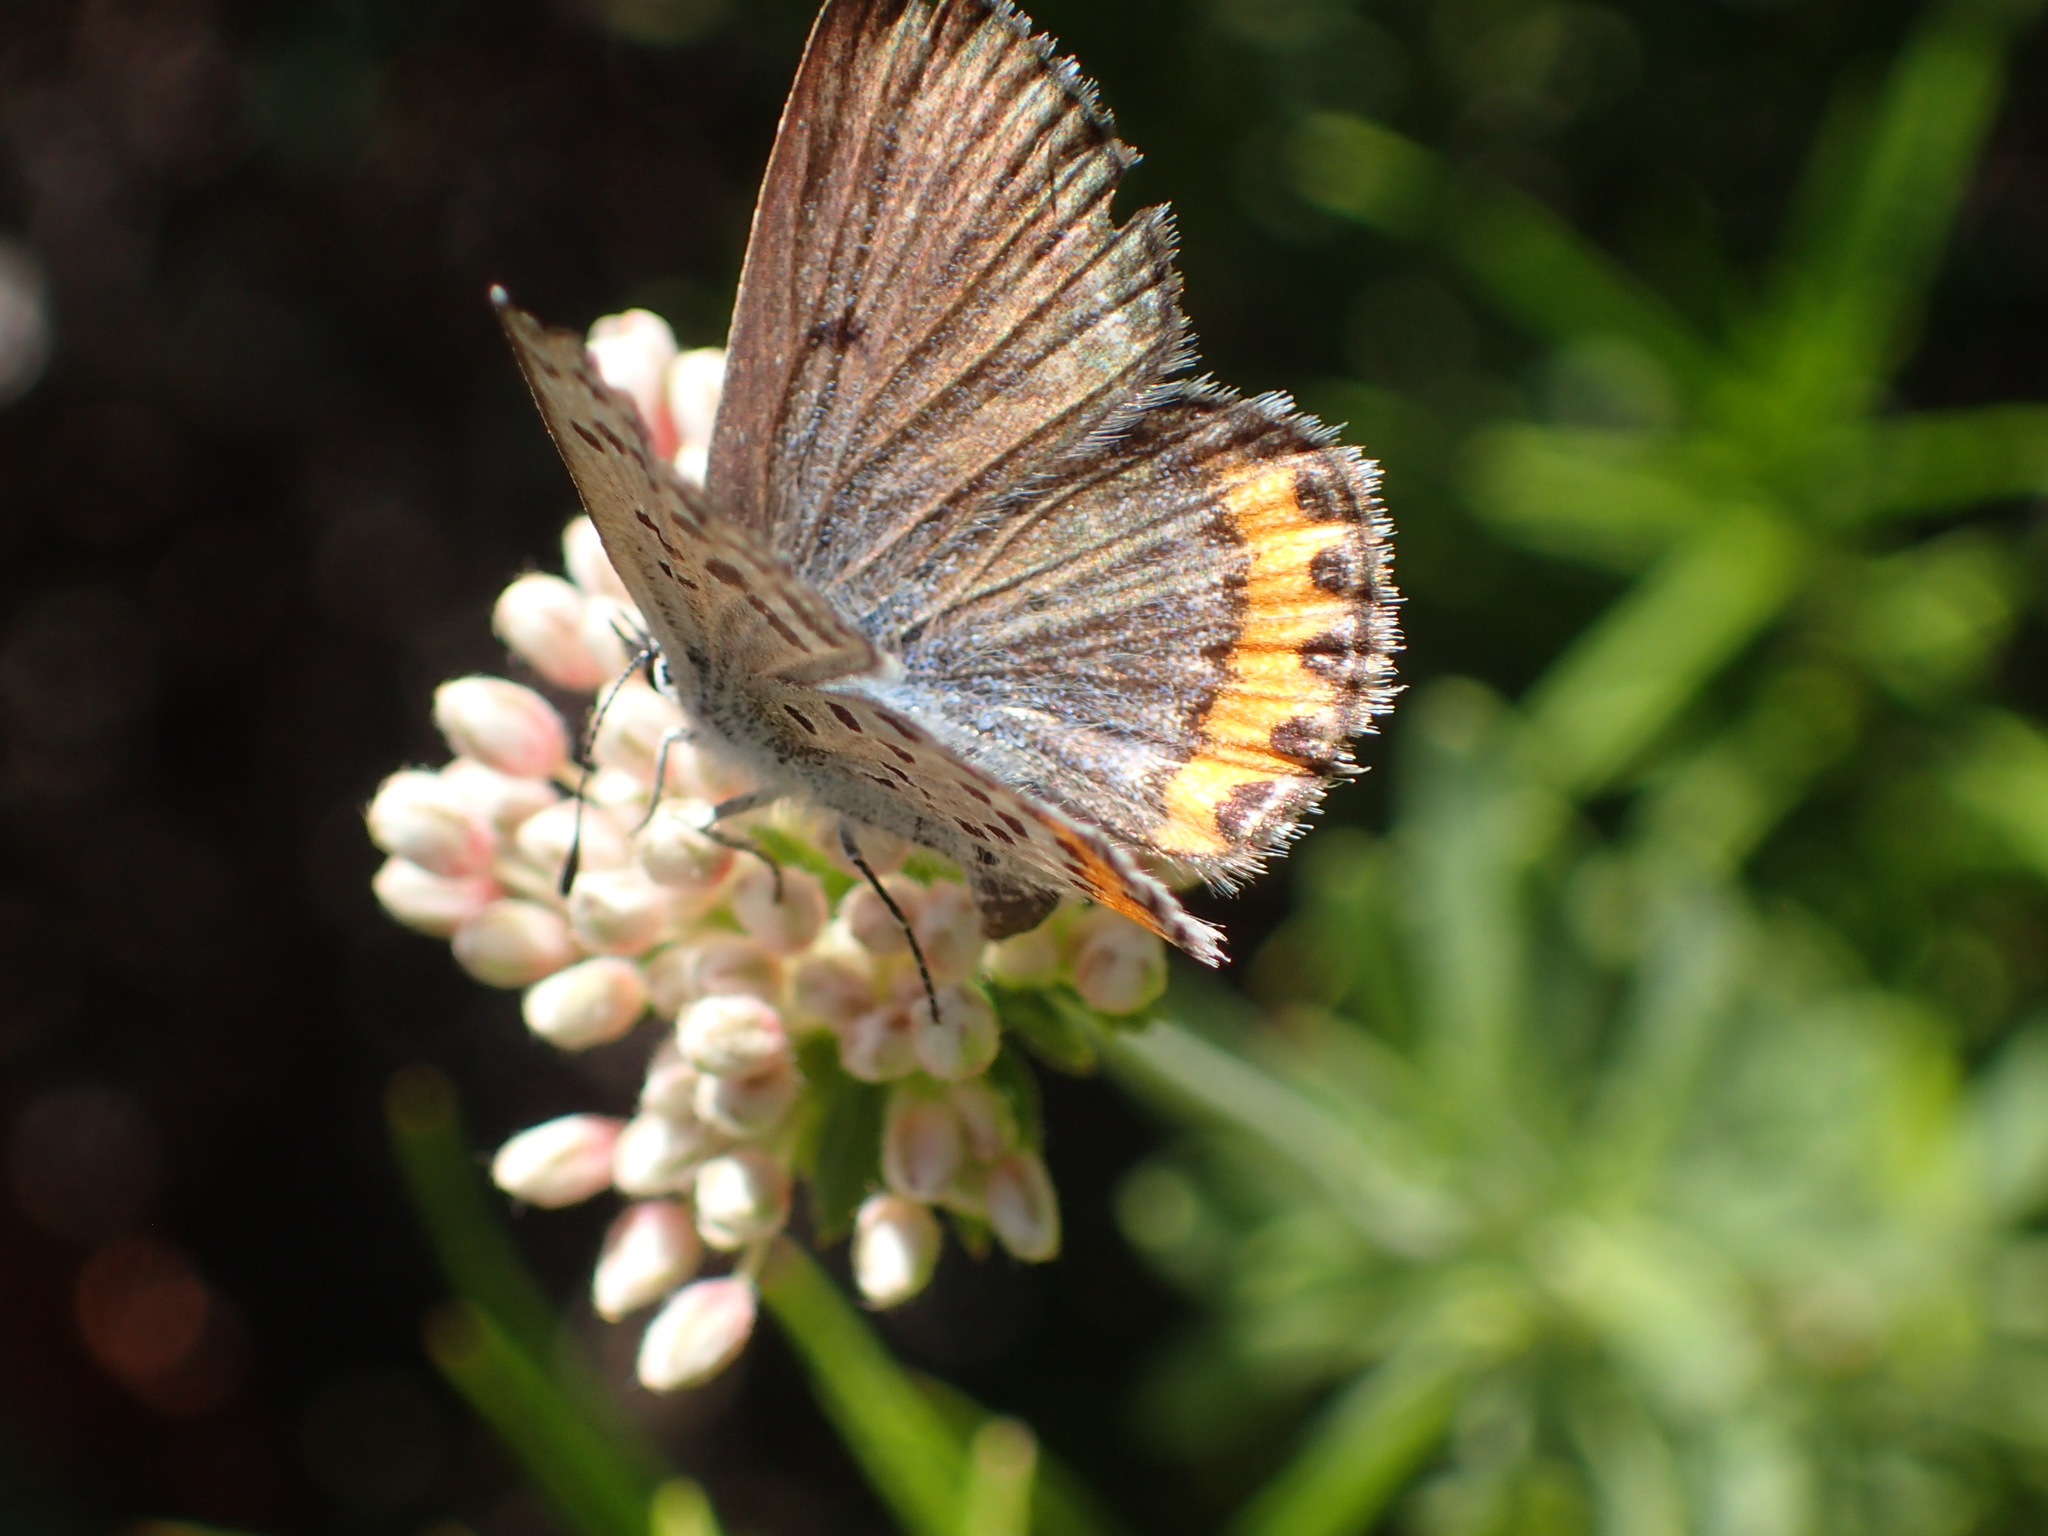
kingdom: Animalia
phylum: Arthropoda
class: Insecta
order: Lepidoptera
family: Lycaenidae
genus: Icaricia
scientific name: Icaricia lupini
